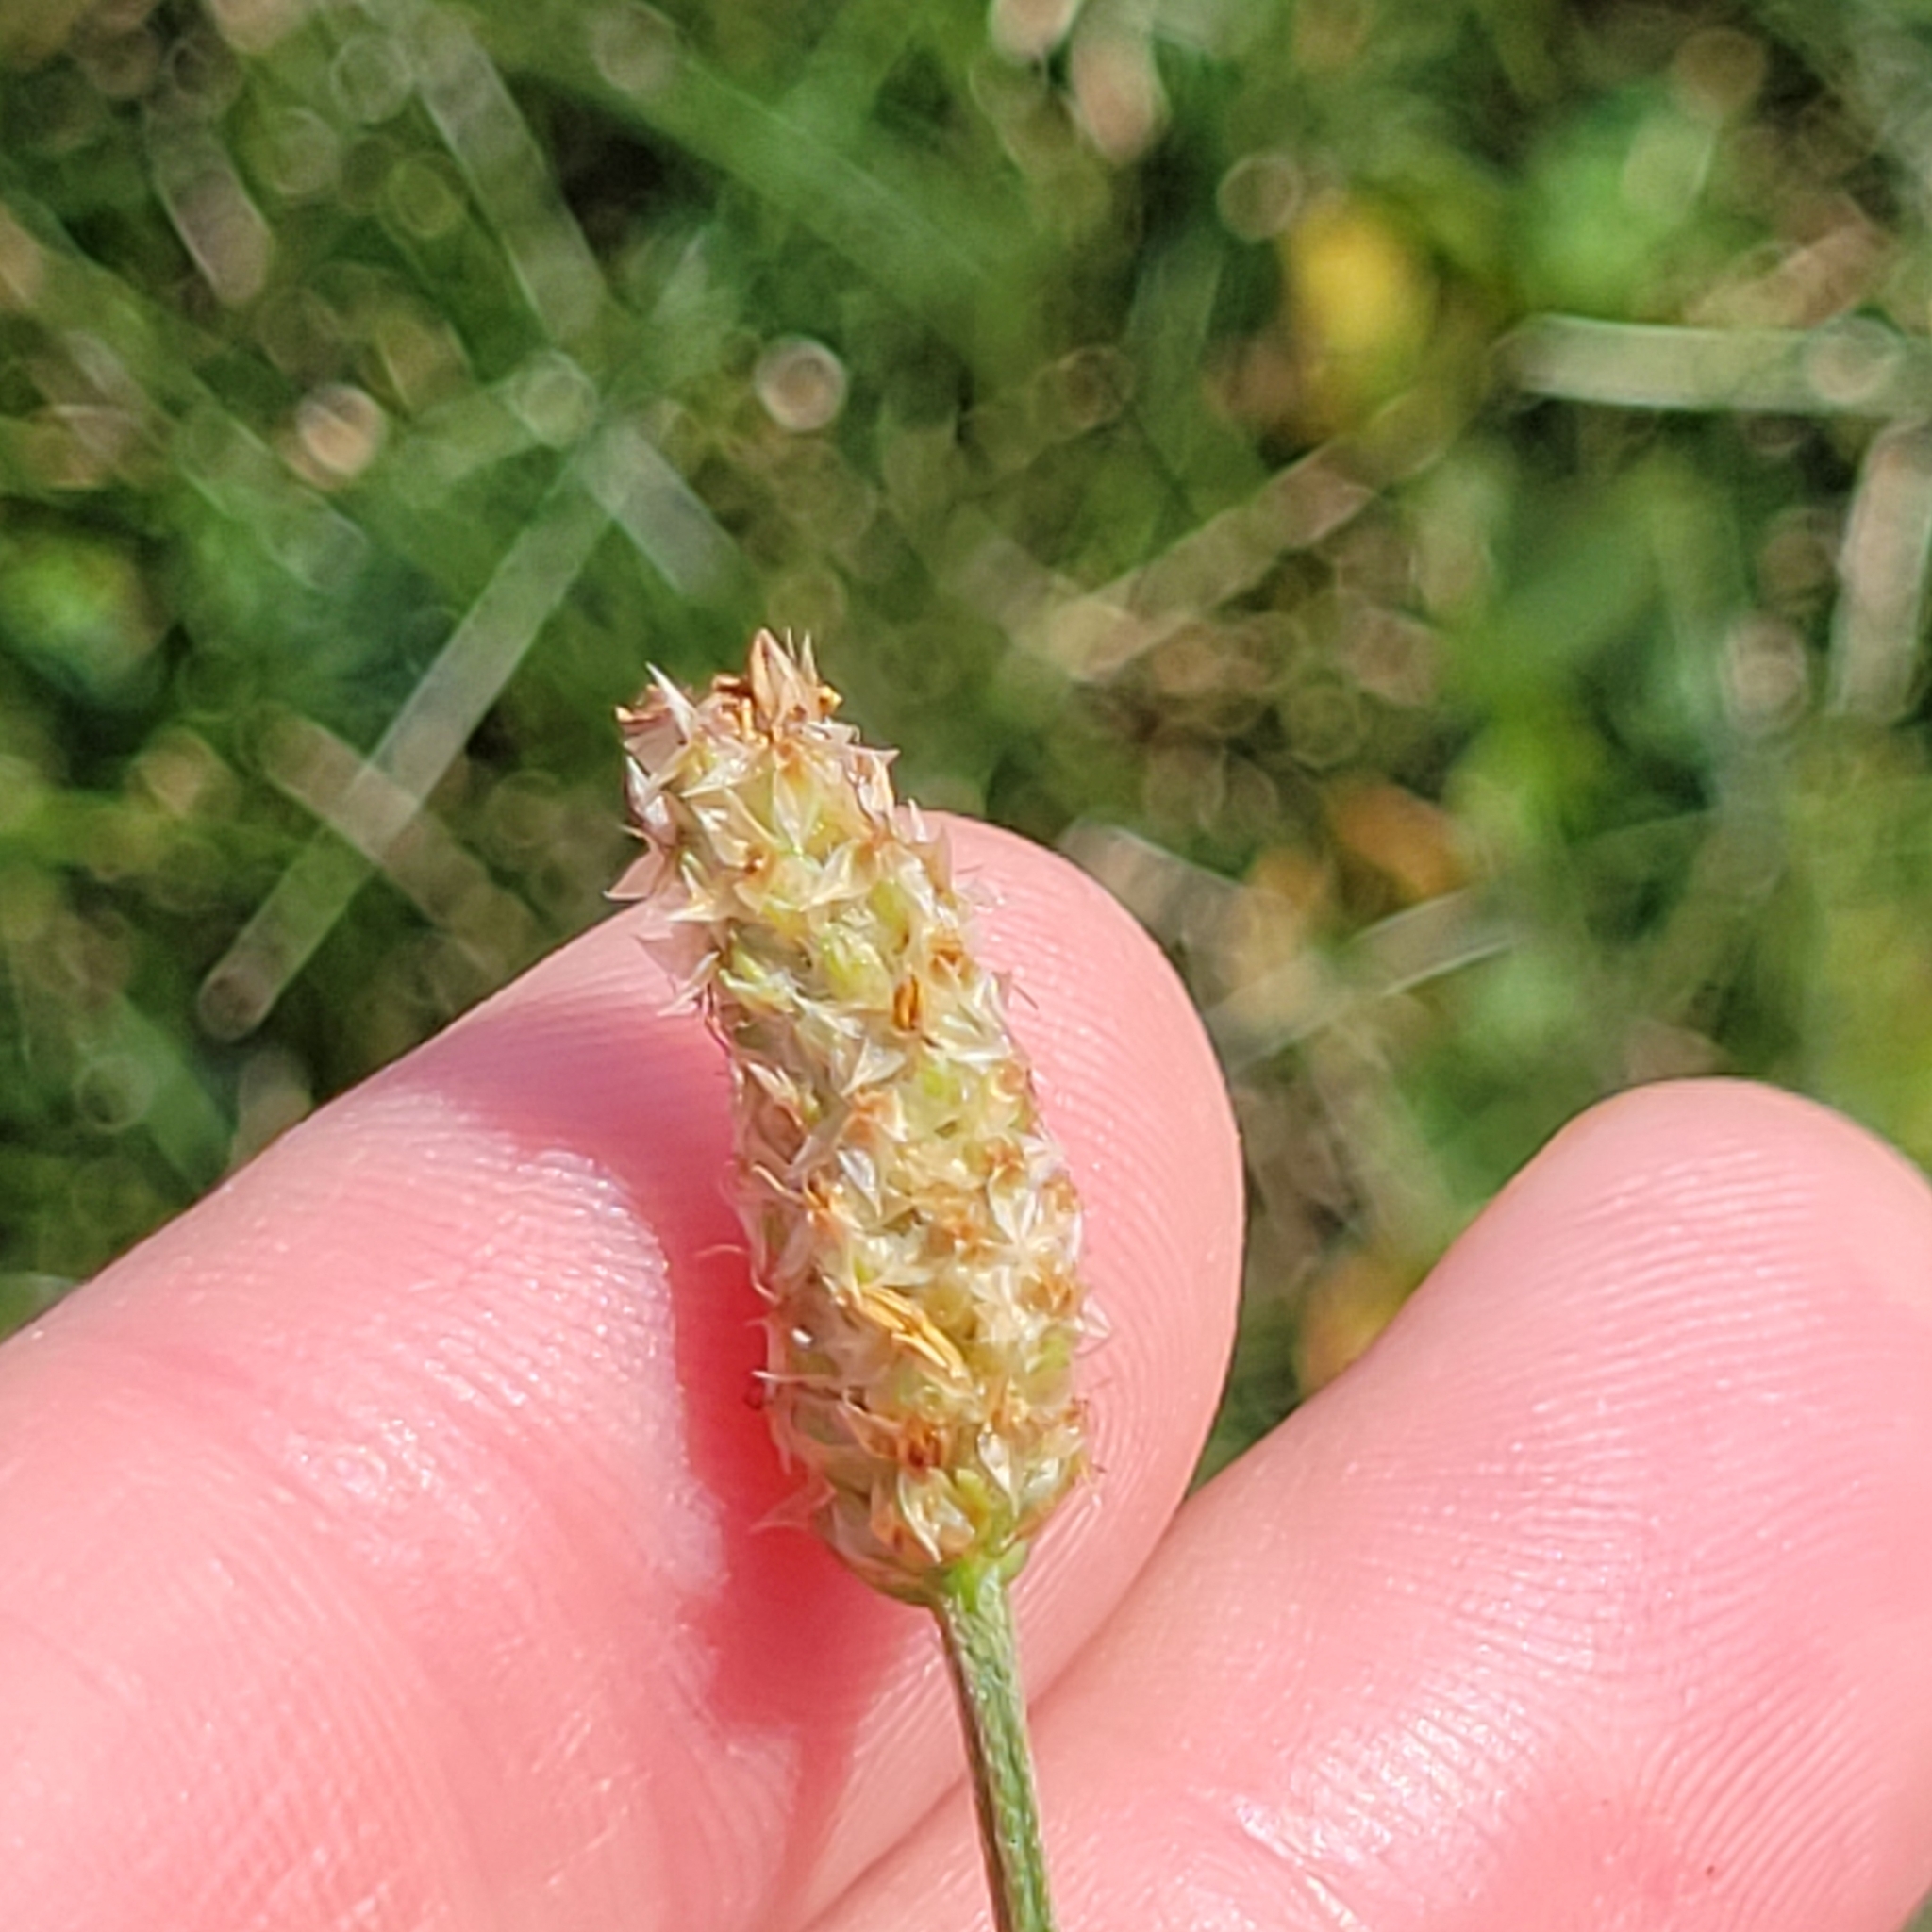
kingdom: Plantae
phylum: Tracheophyta
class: Magnoliopsida
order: Lamiales
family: Plantaginaceae
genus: Plantago
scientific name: Plantago lanceolata
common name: Ribwort plantain
